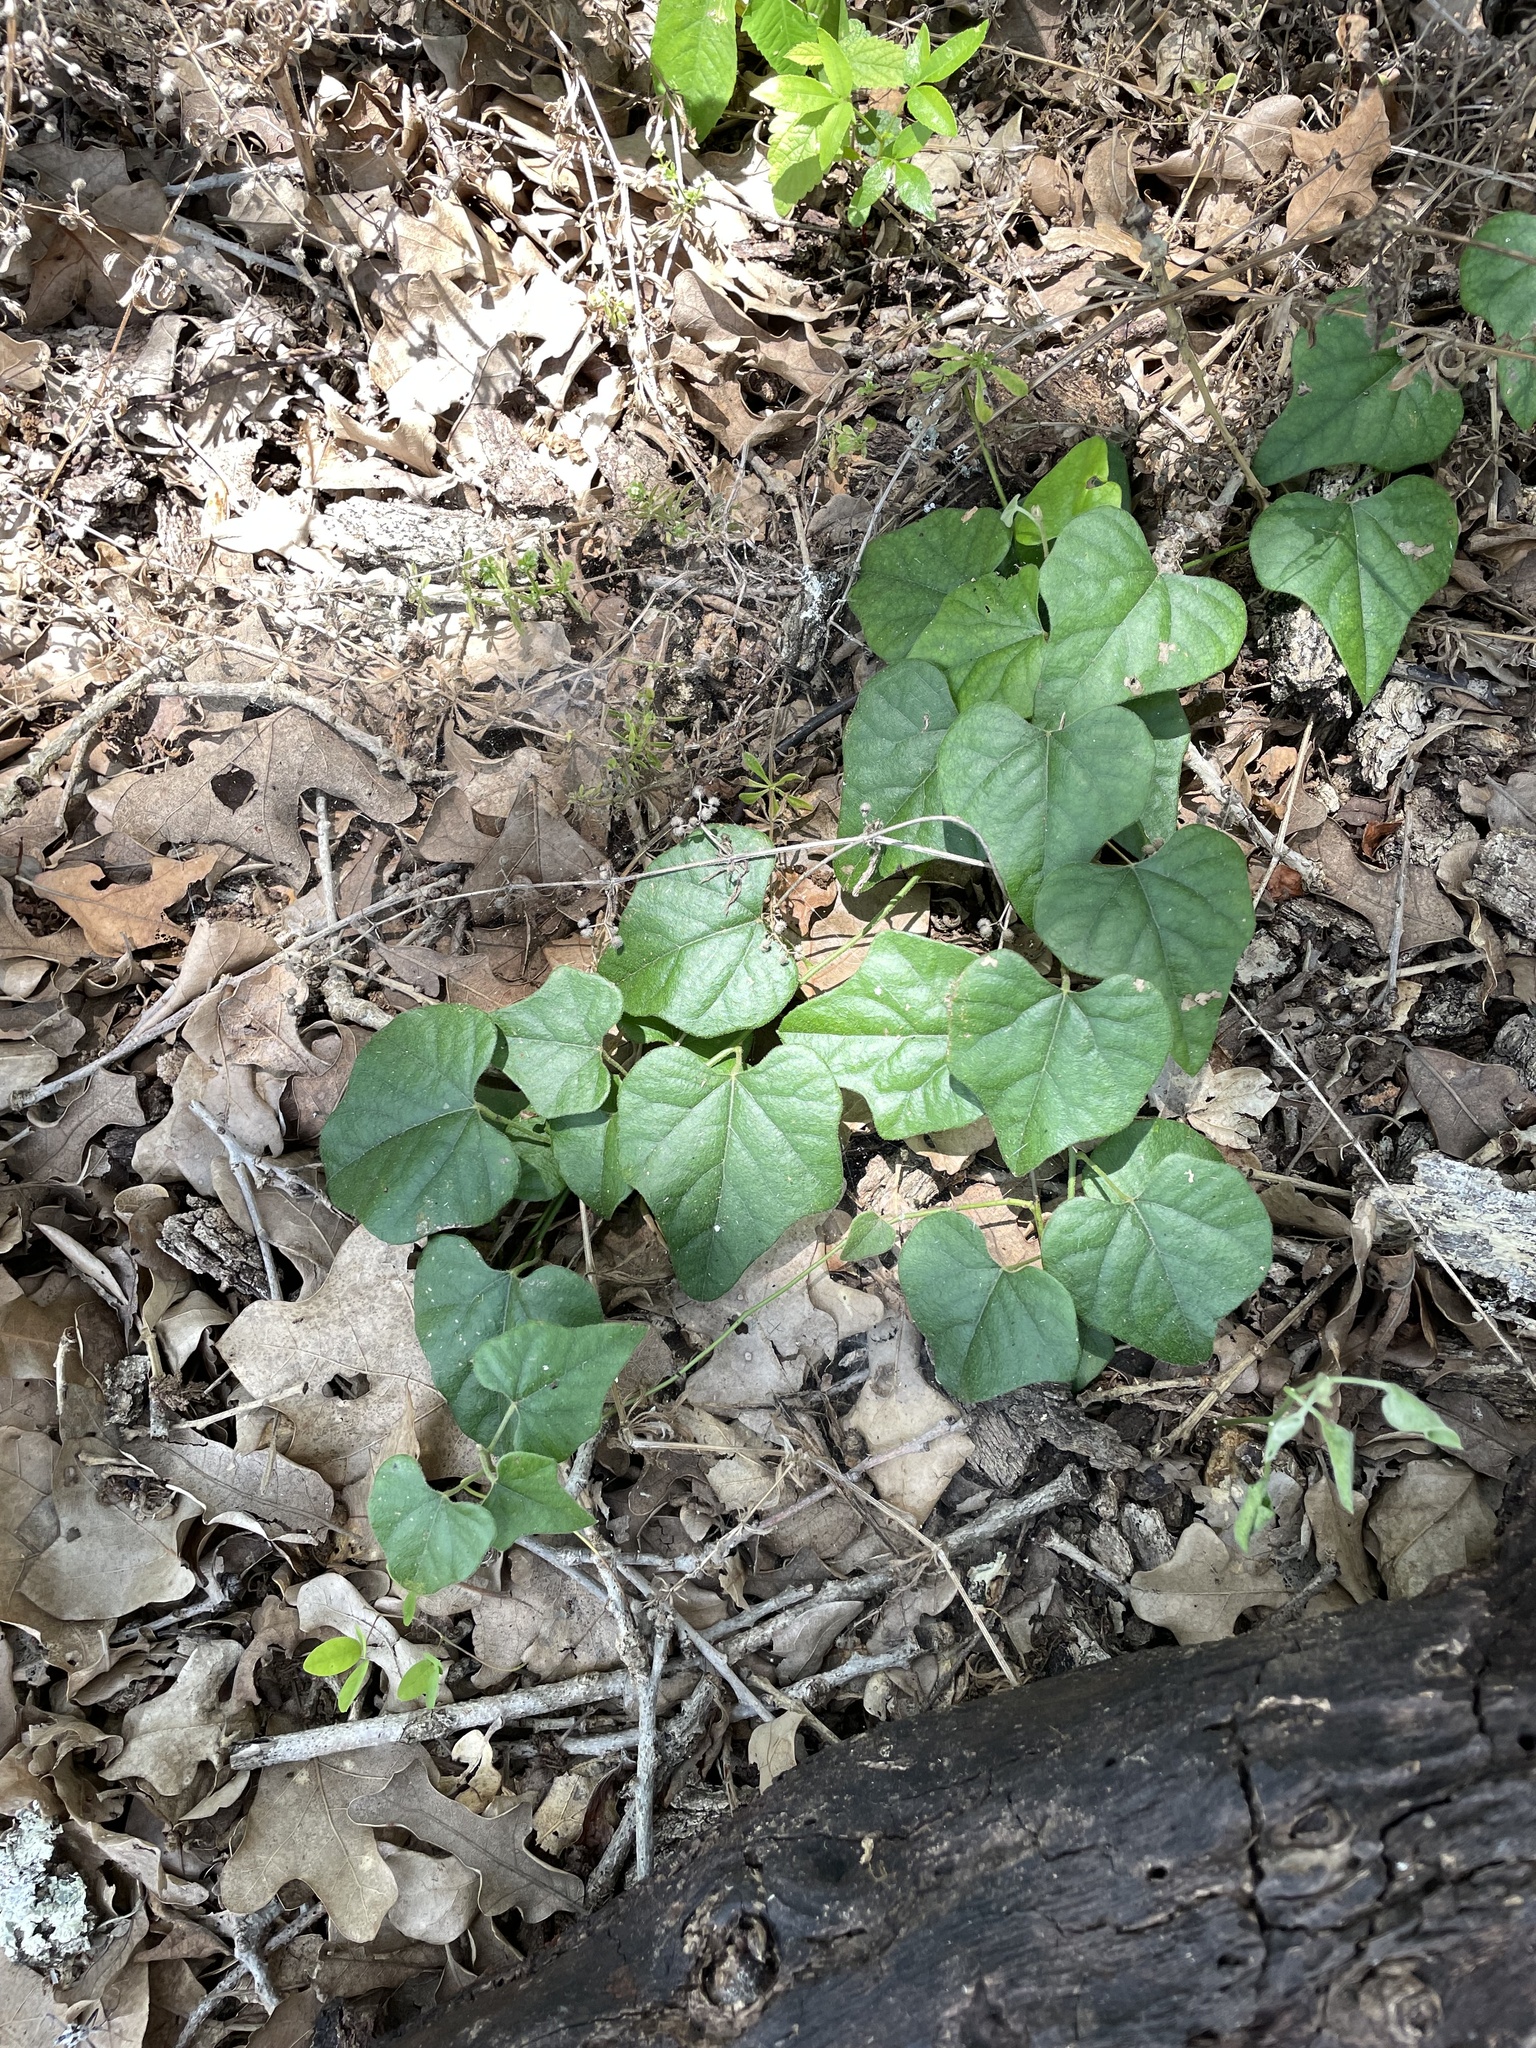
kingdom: Plantae
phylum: Tracheophyta
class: Magnoliopsida
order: Ranunculales
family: Menispermaceae
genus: Cocculus
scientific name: Cocculus carolinus
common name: Carolina moonseed
